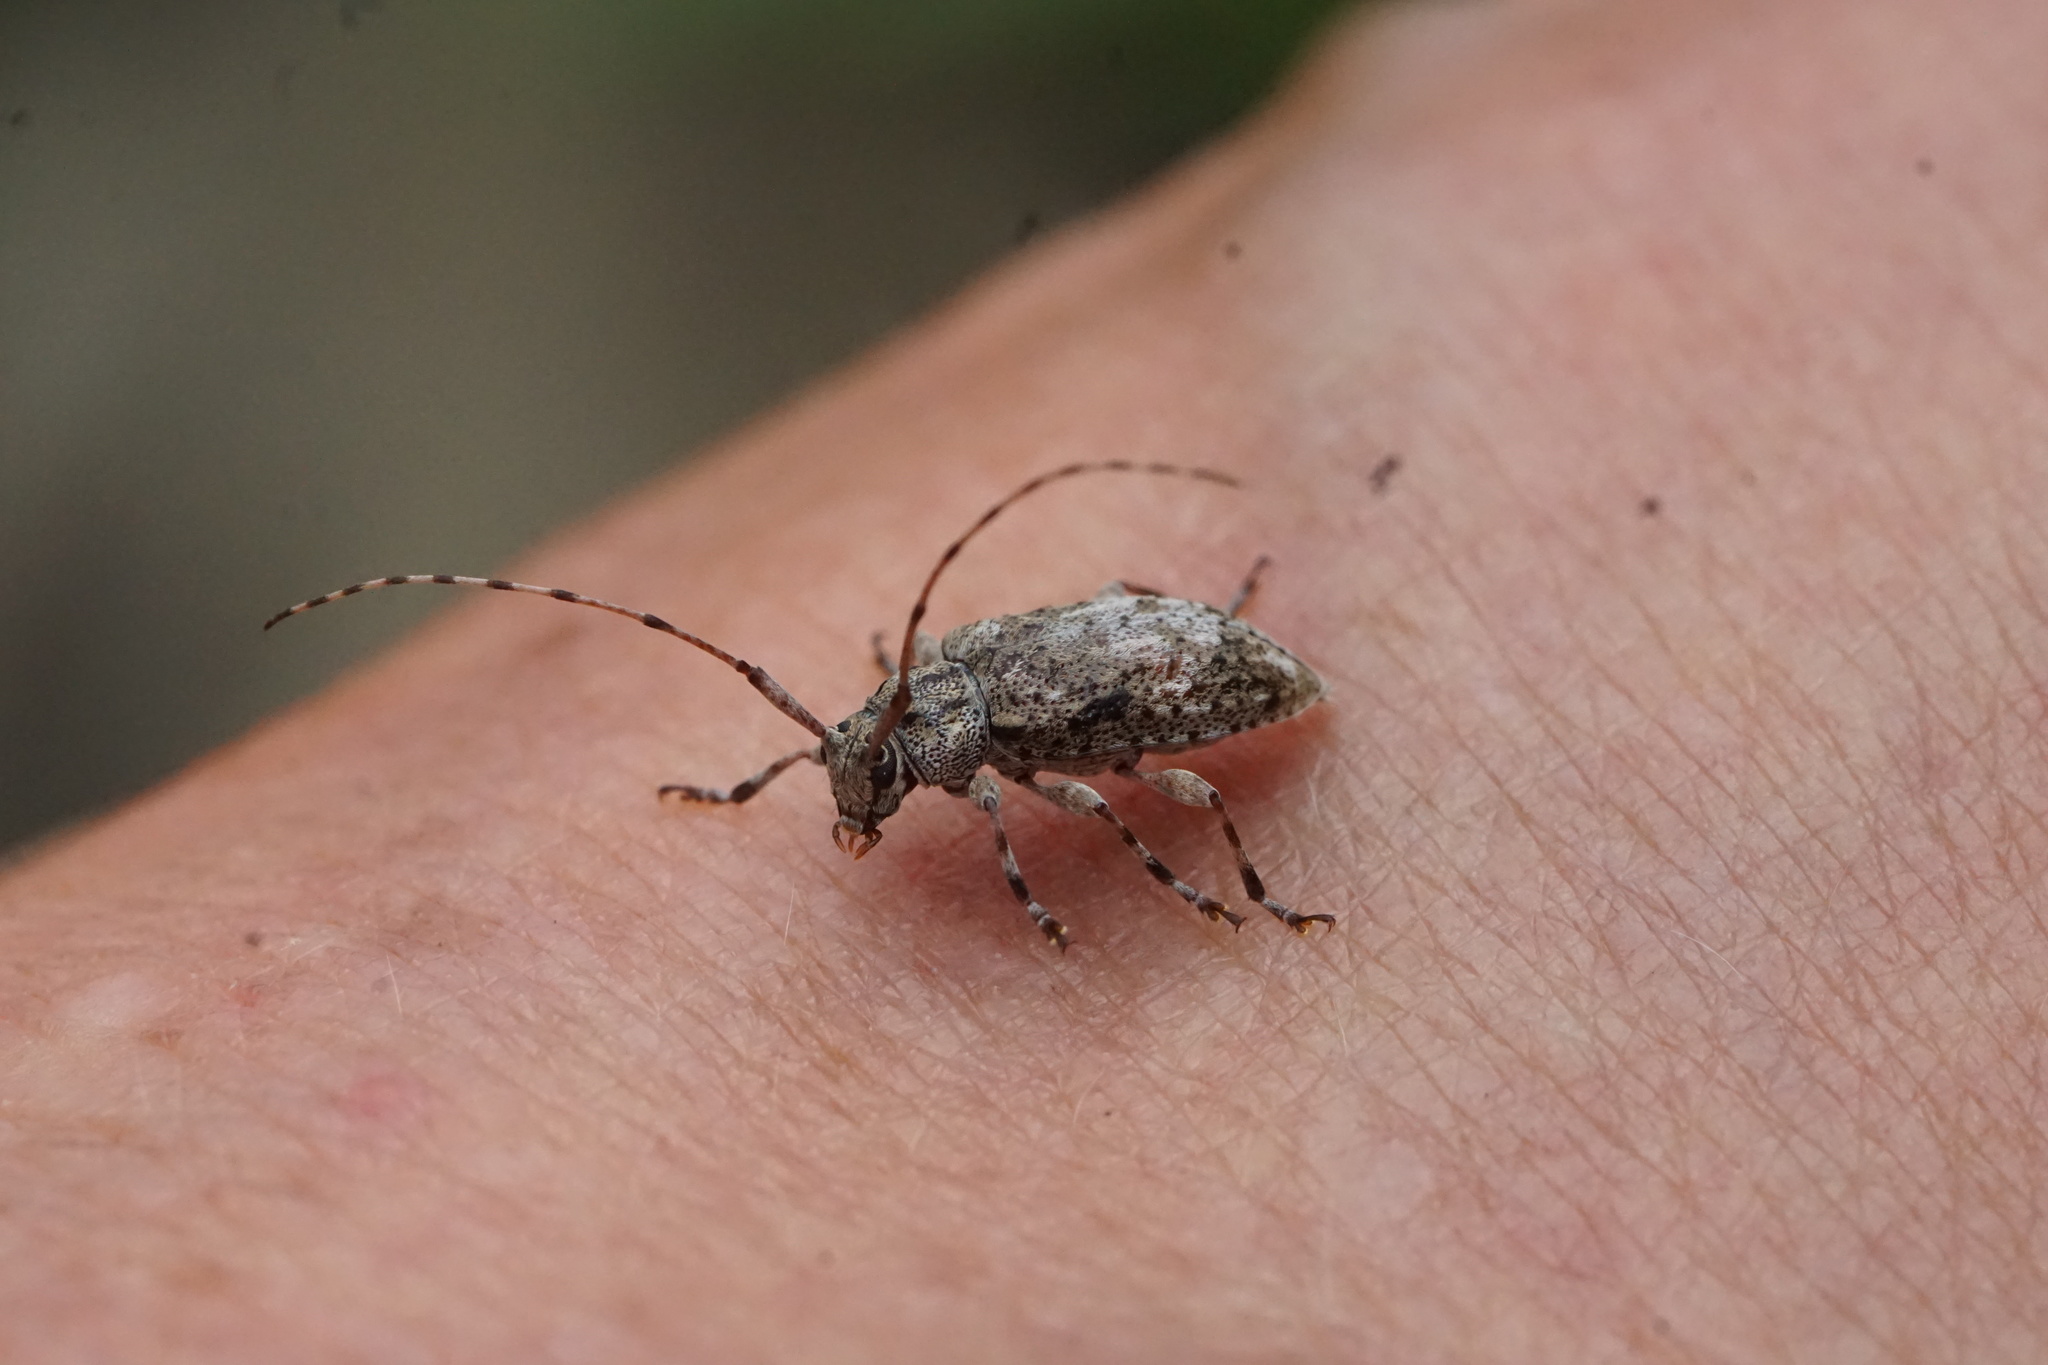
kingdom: Animalia
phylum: Arthropoda
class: Insecta
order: Coleoptera
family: Cerambycidae
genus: Astylopsis
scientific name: Astylopsis collaris
